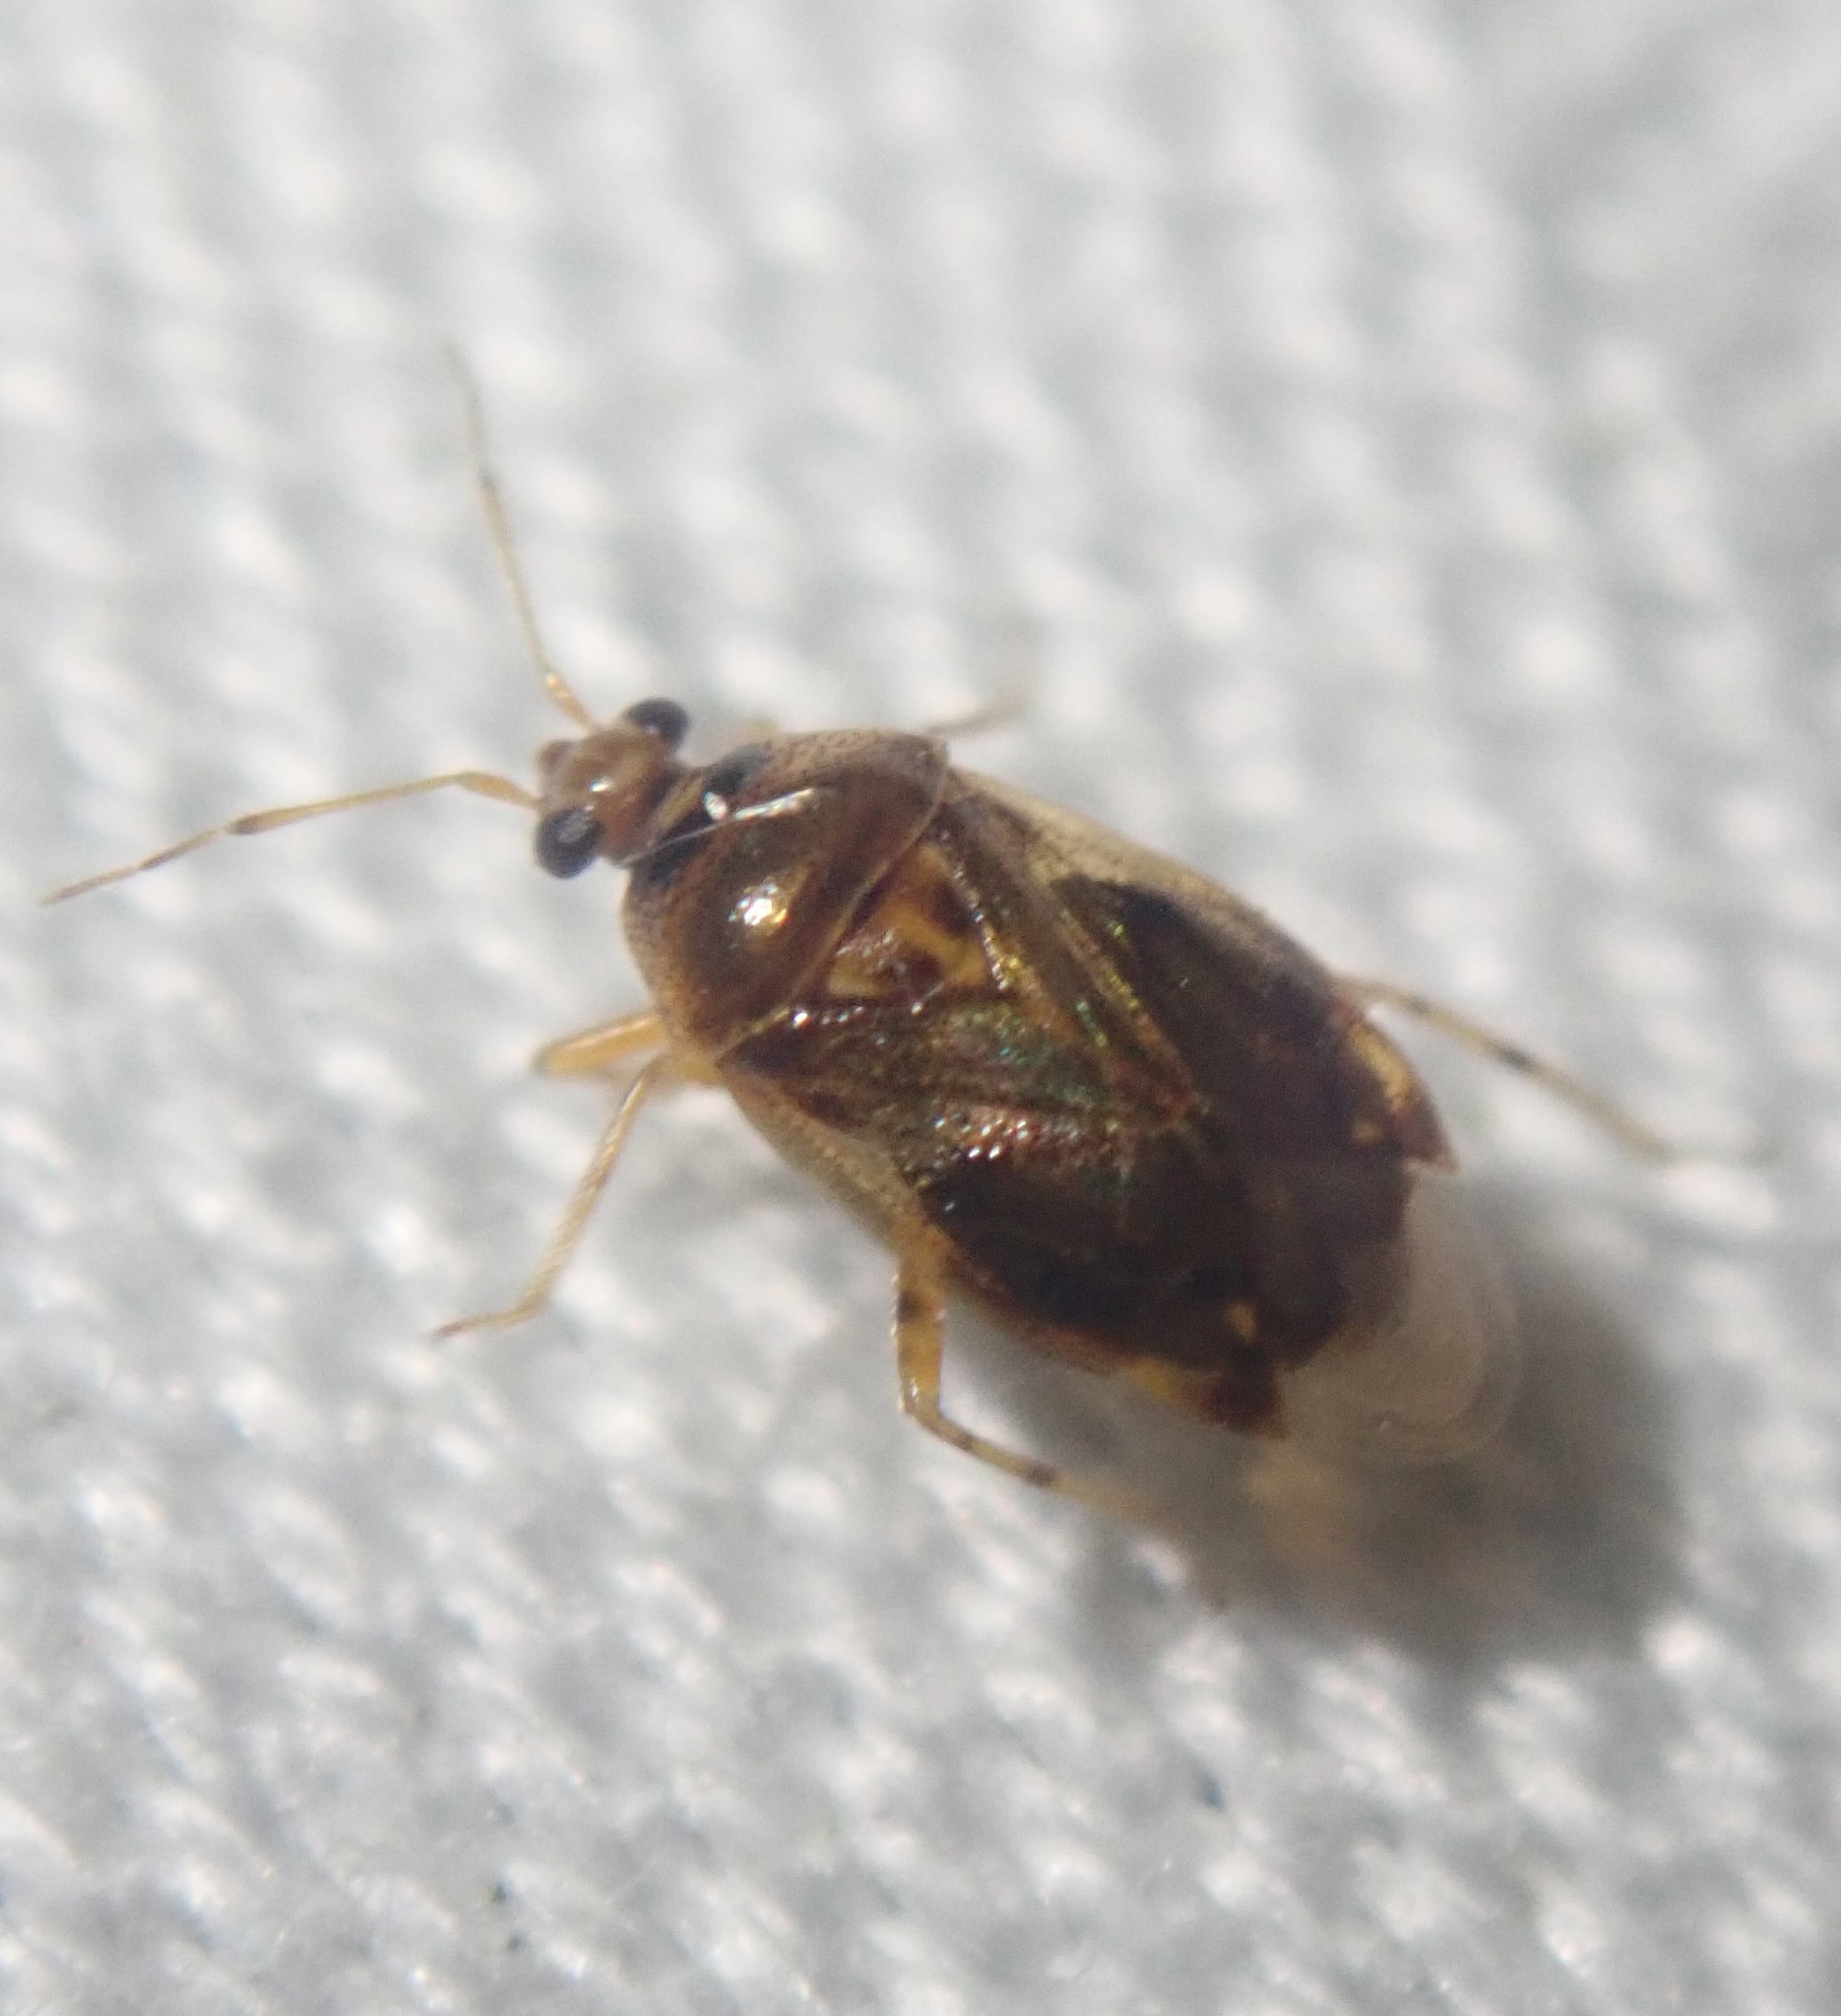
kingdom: Animalia
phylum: Arthropoda
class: Insecta
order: Hemiptera
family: Miridae
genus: Deraeocoris
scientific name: Deraeocoris lutescens
